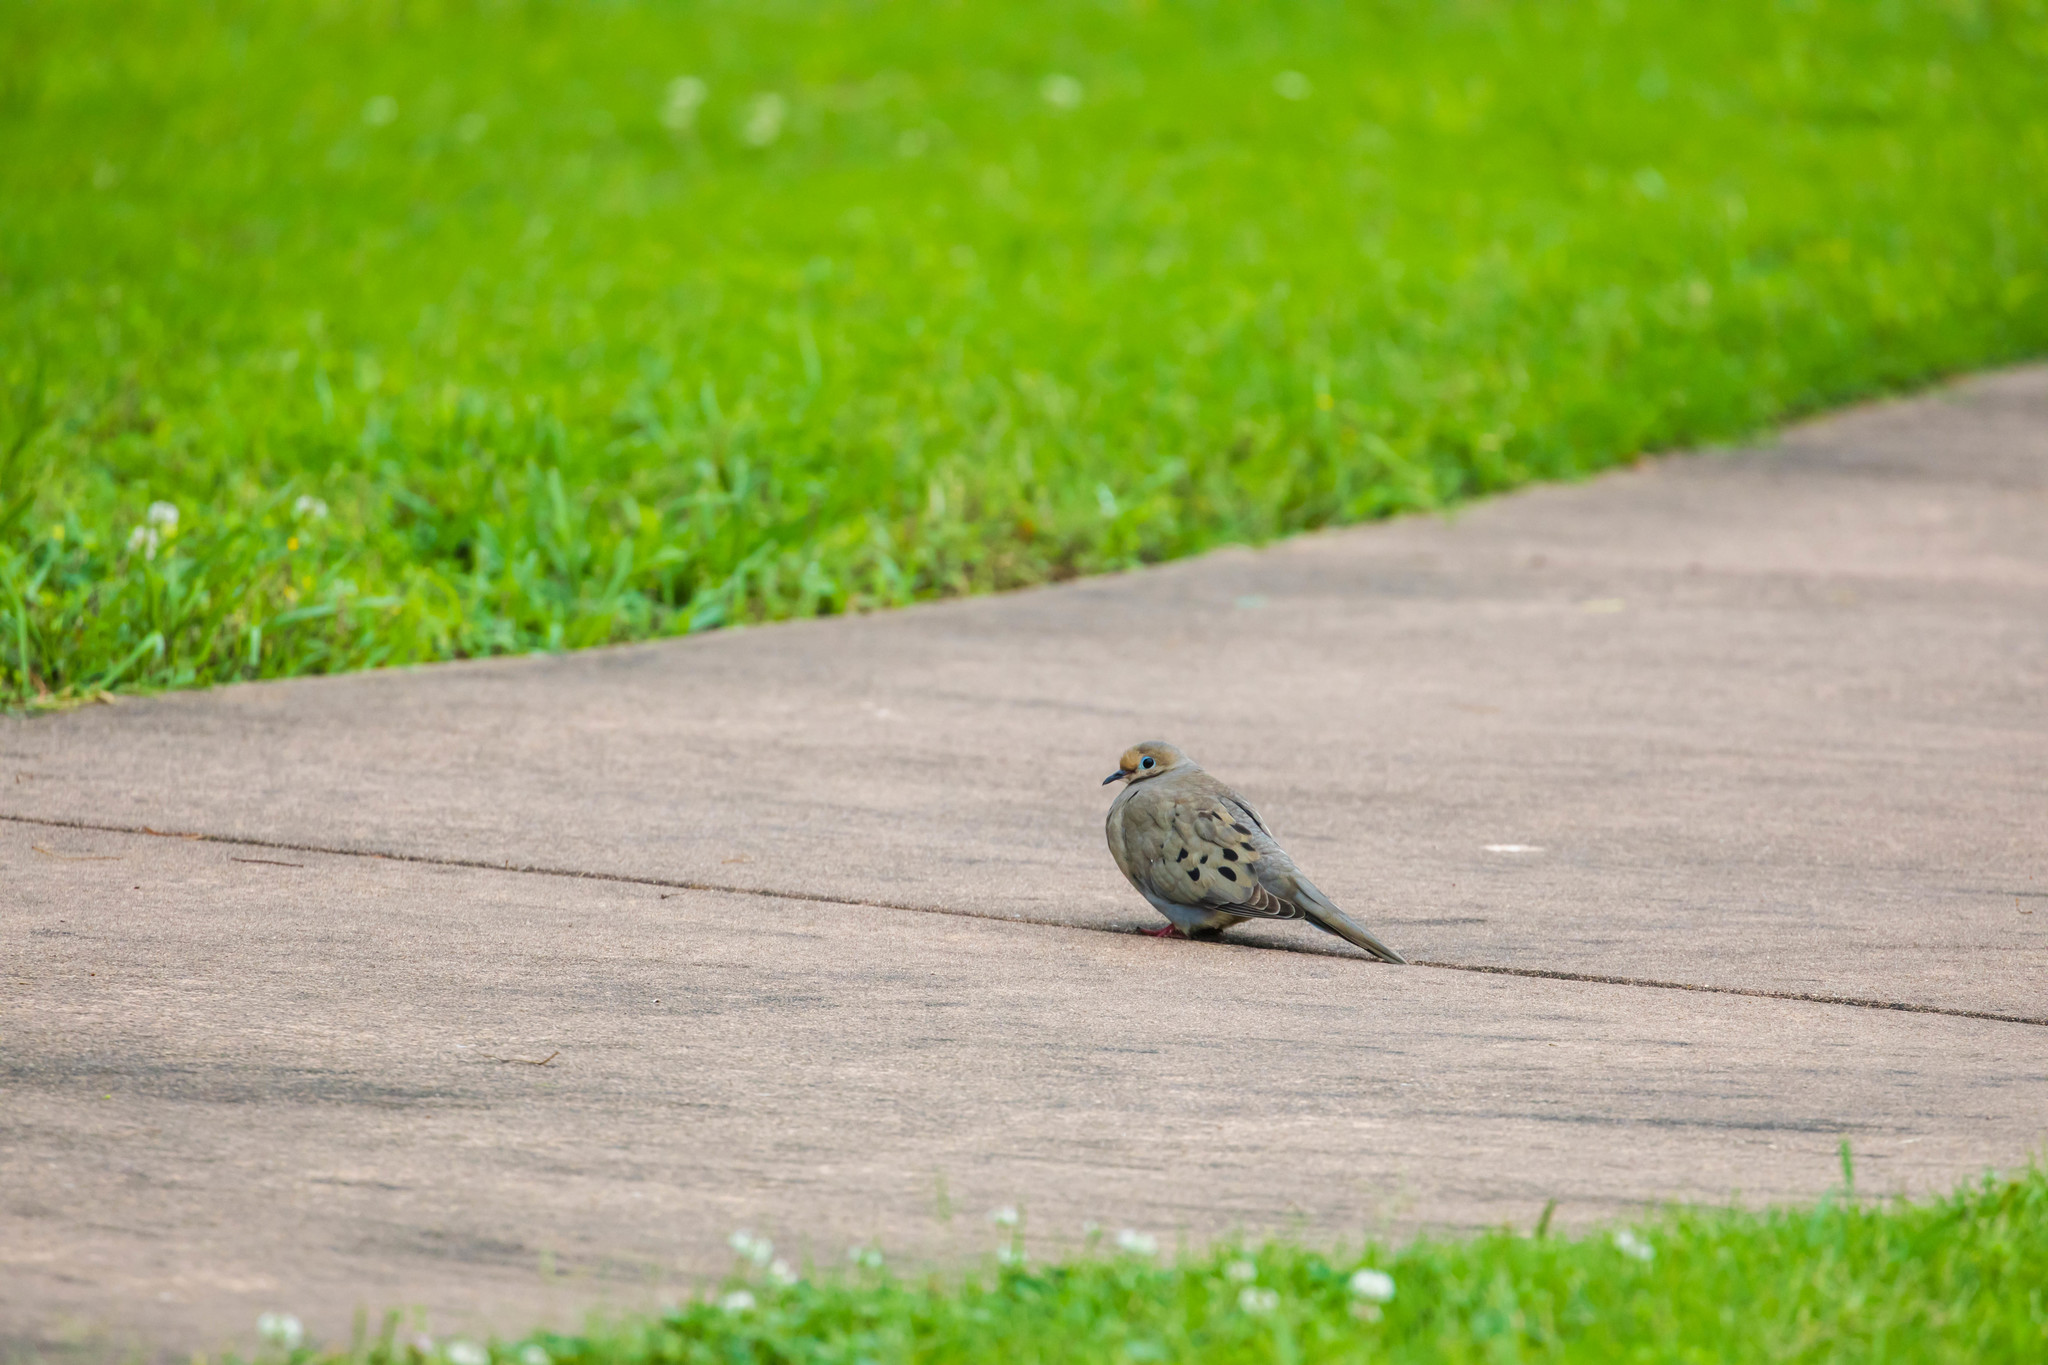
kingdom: Animalia
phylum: Chordata
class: Aves
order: Columbiformes
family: Columbidae
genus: Zenaida
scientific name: Zenaida macroura
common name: Mourning dove
